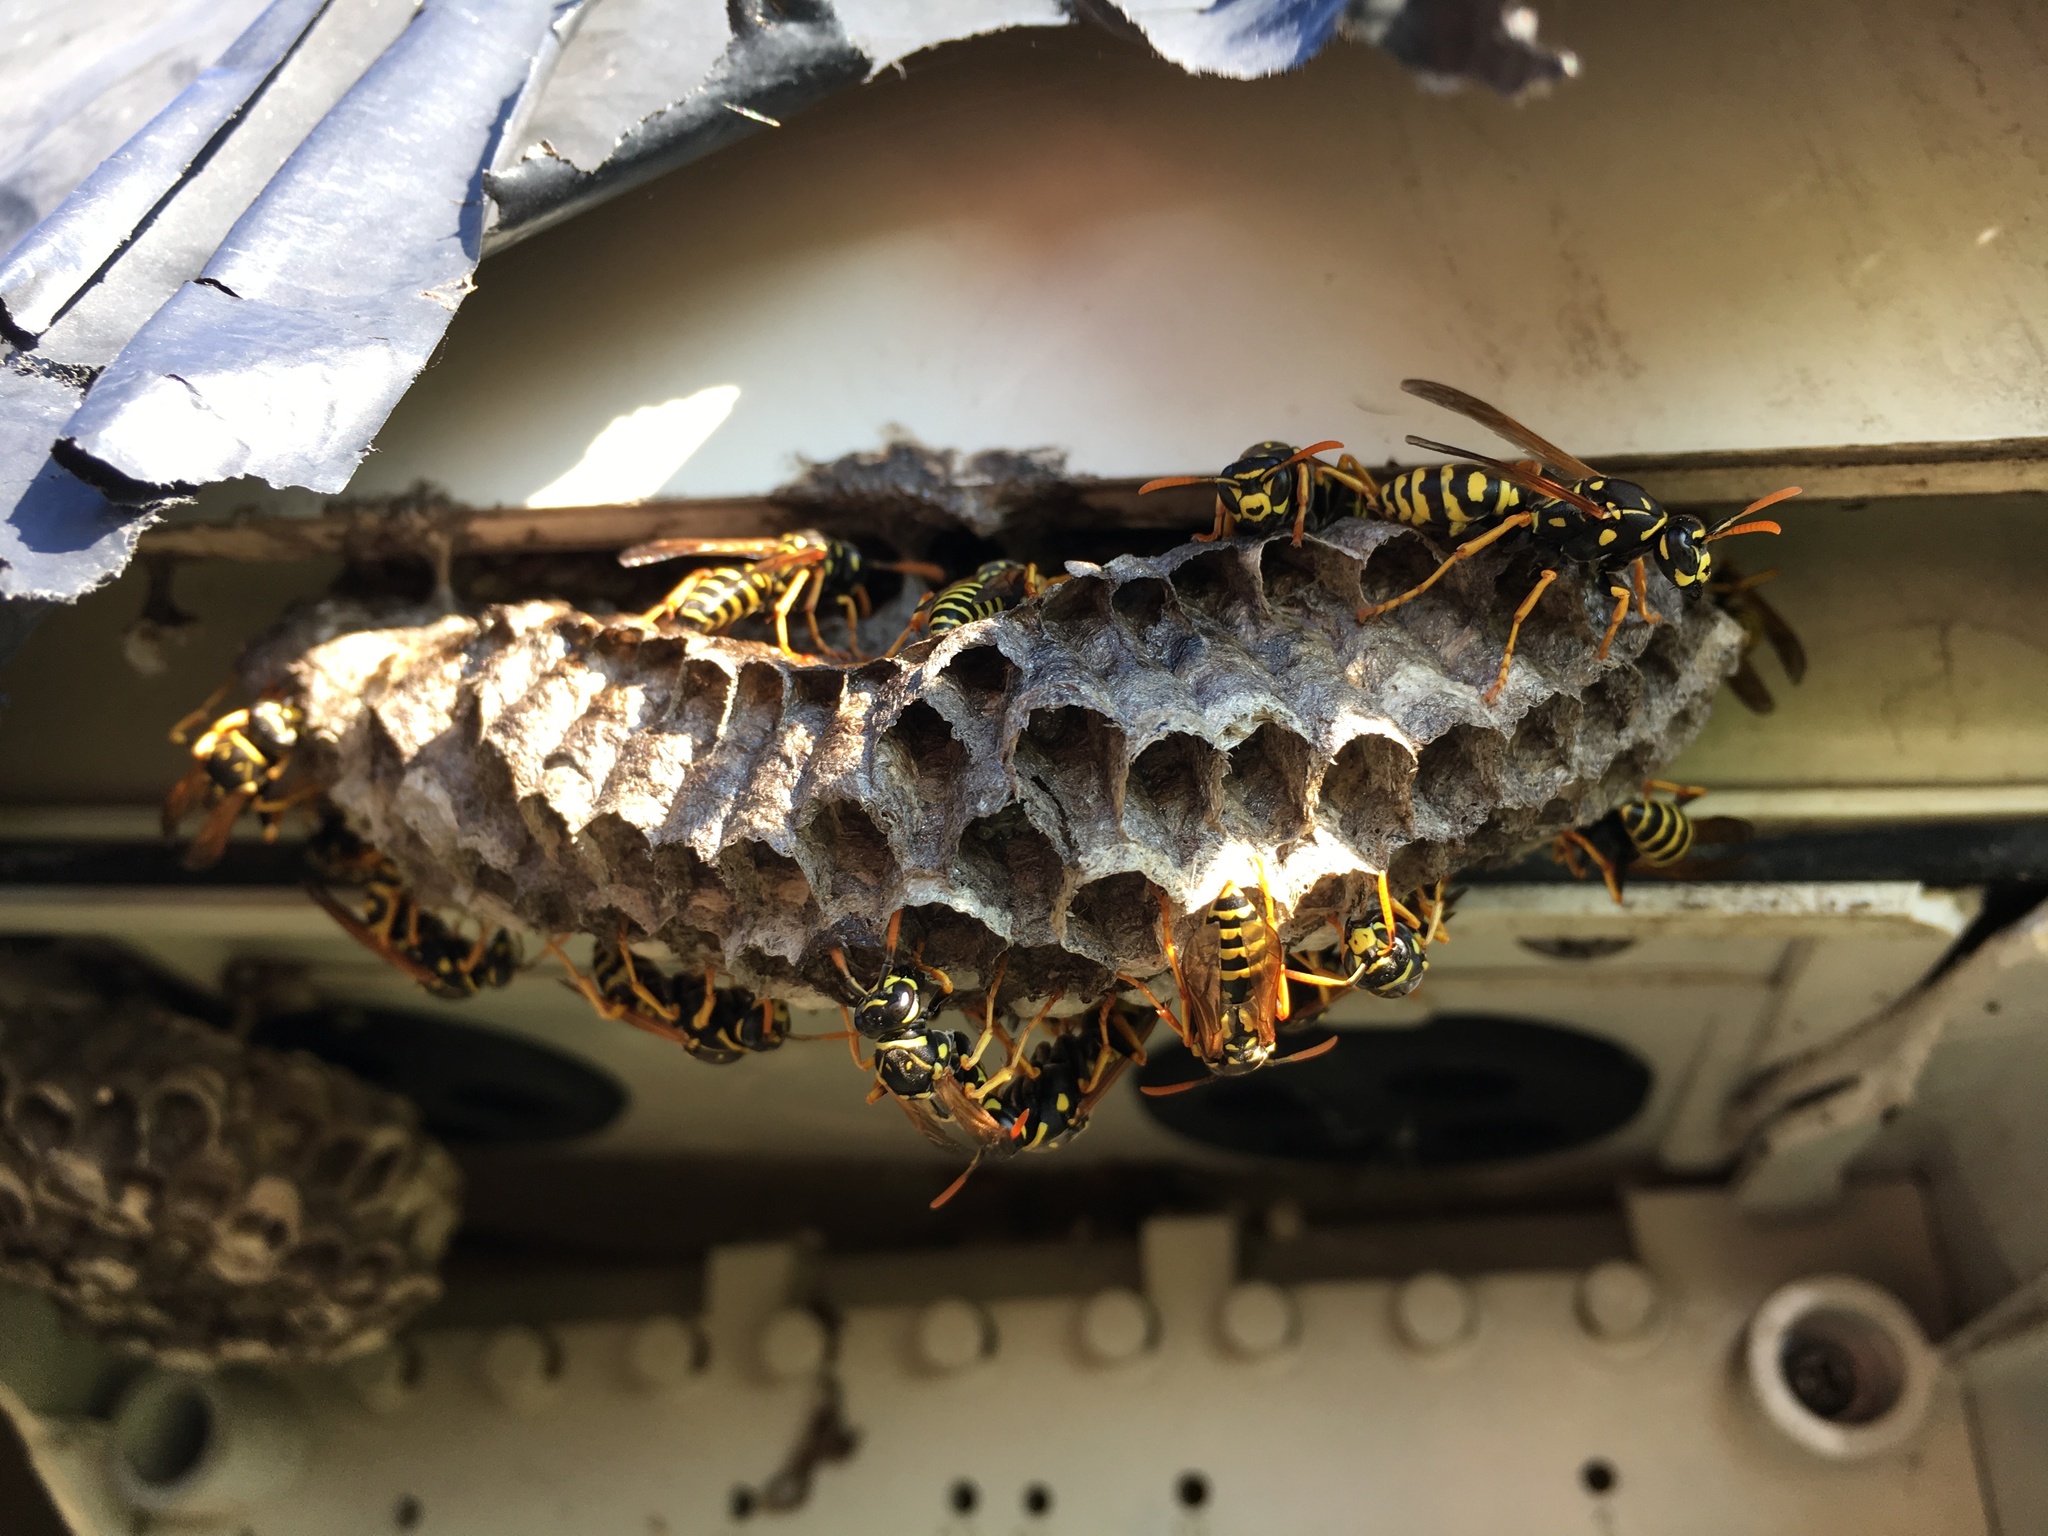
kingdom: Animalia
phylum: Arthropoda
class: Insecta
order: Hymenoptera
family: Eumenidae
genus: Polistes
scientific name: Polistes dominula
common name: Paper wasp
